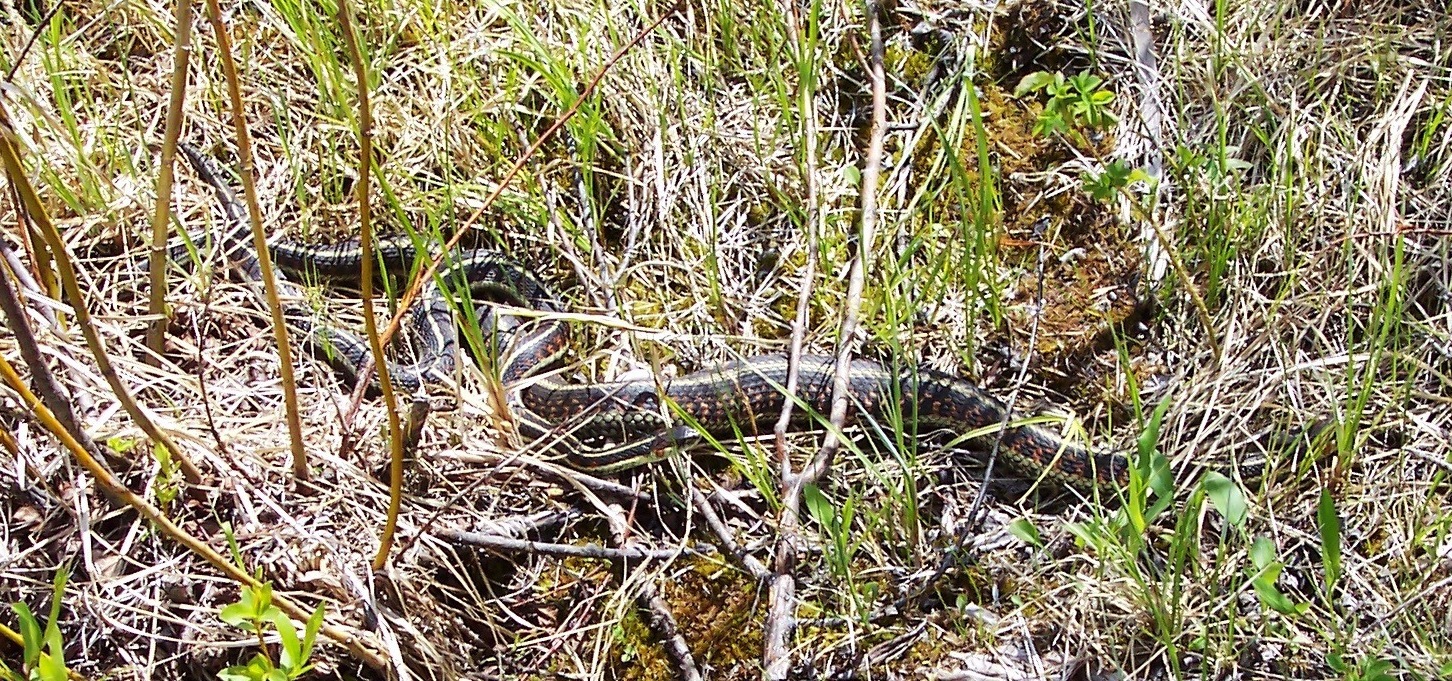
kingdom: Animalia
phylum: Chordata
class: Squamata
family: Colubridae
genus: Thamnophis
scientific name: Thamnophis sirtalis
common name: Common garter snake
